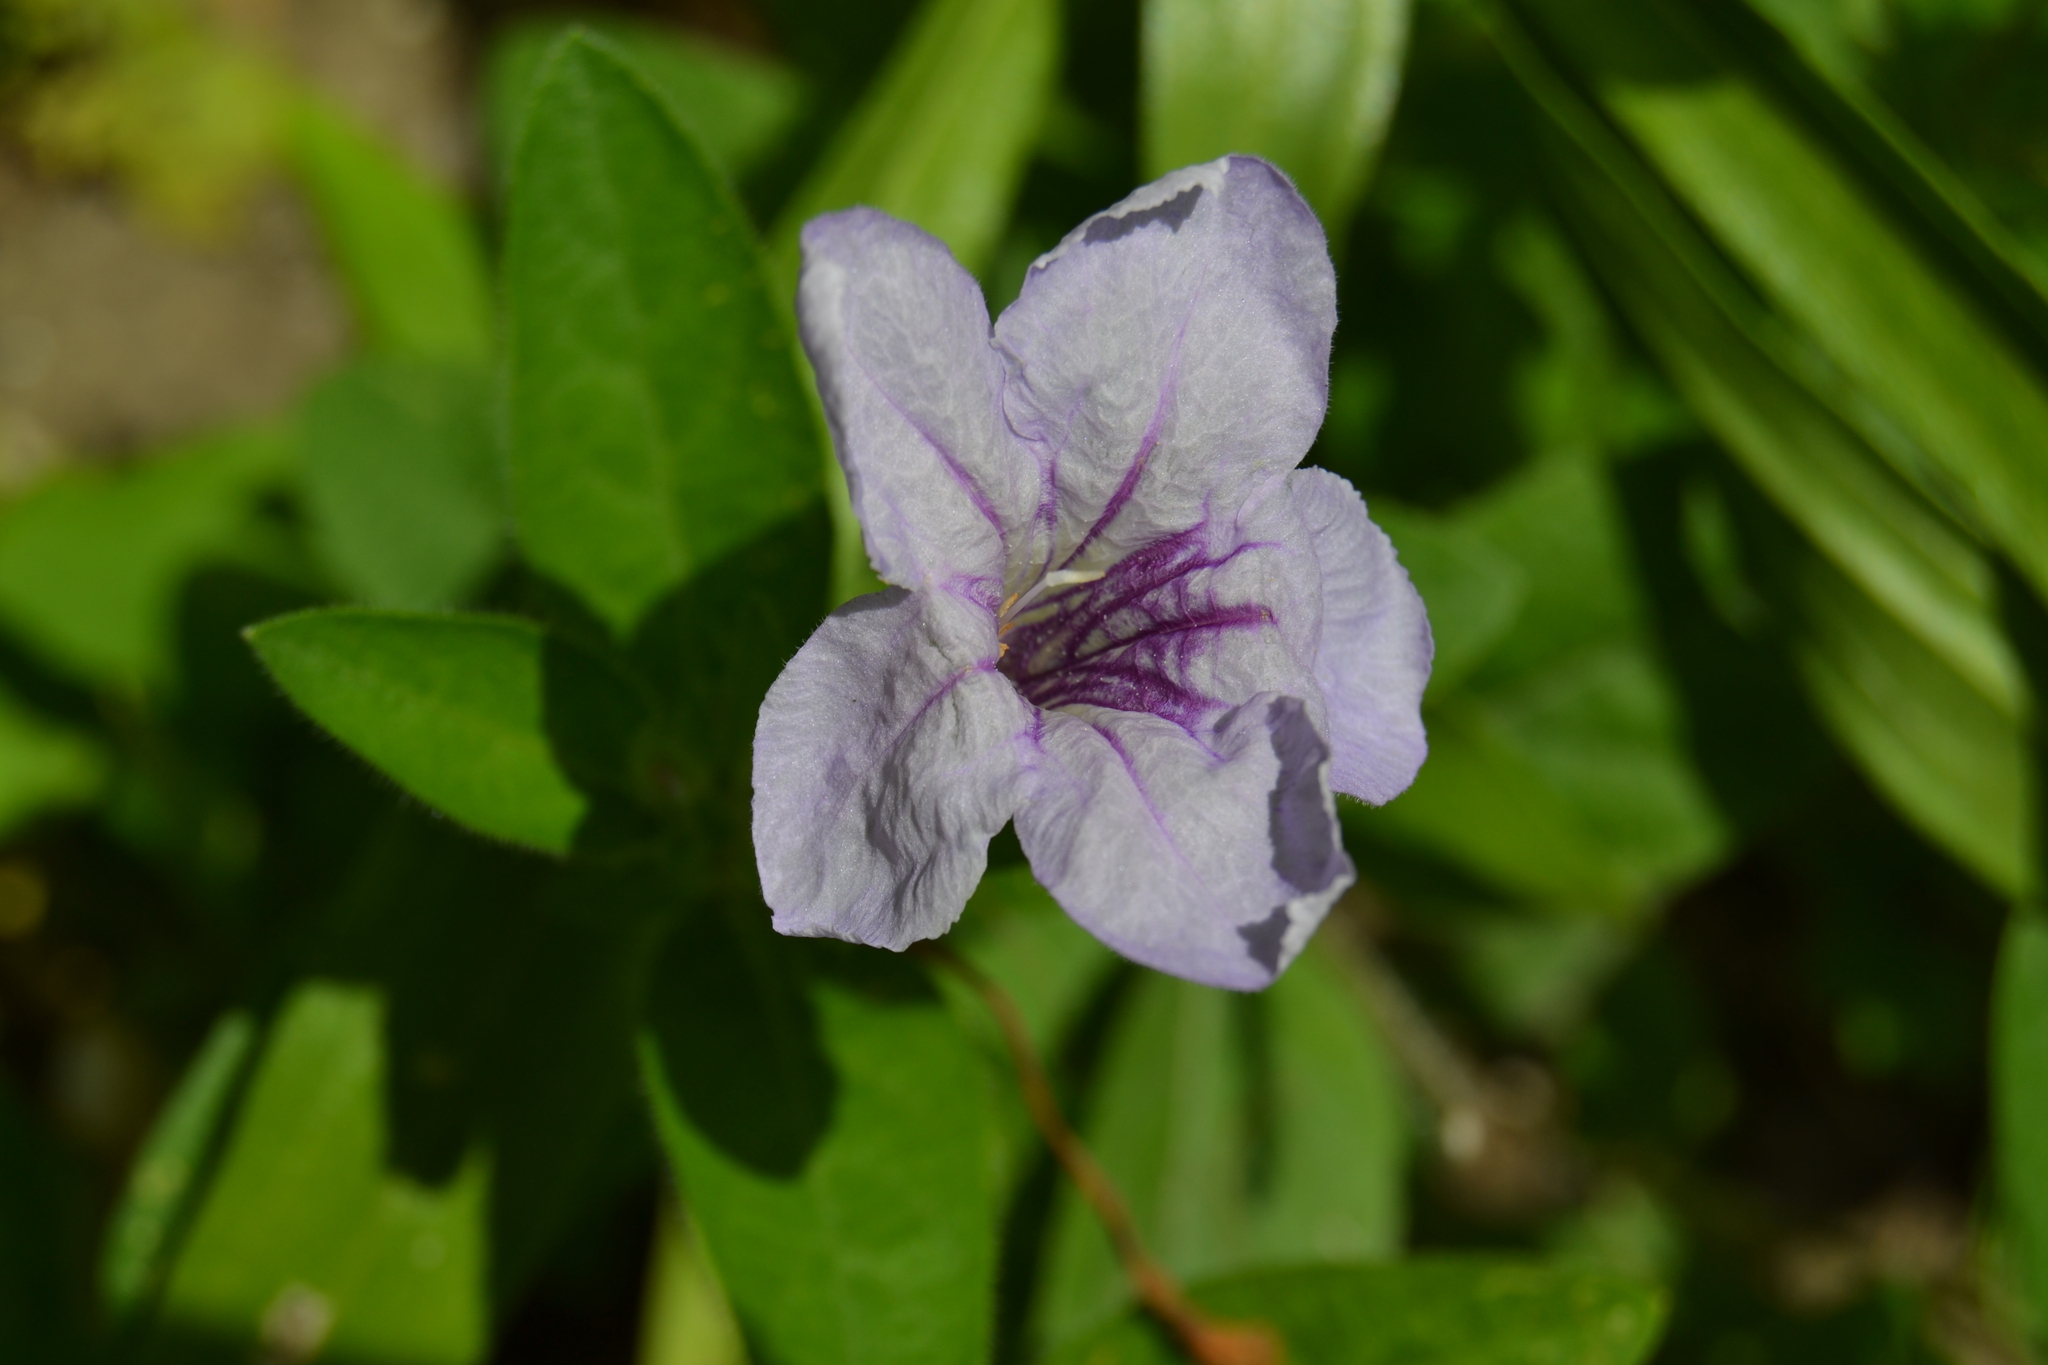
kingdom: Plantae
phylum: Tracheophyta
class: Magnoliopsida
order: Lamiales
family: Acanthaceae
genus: Ruellia
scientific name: Ruellia humilis
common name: Fringe-leaf ruellia
